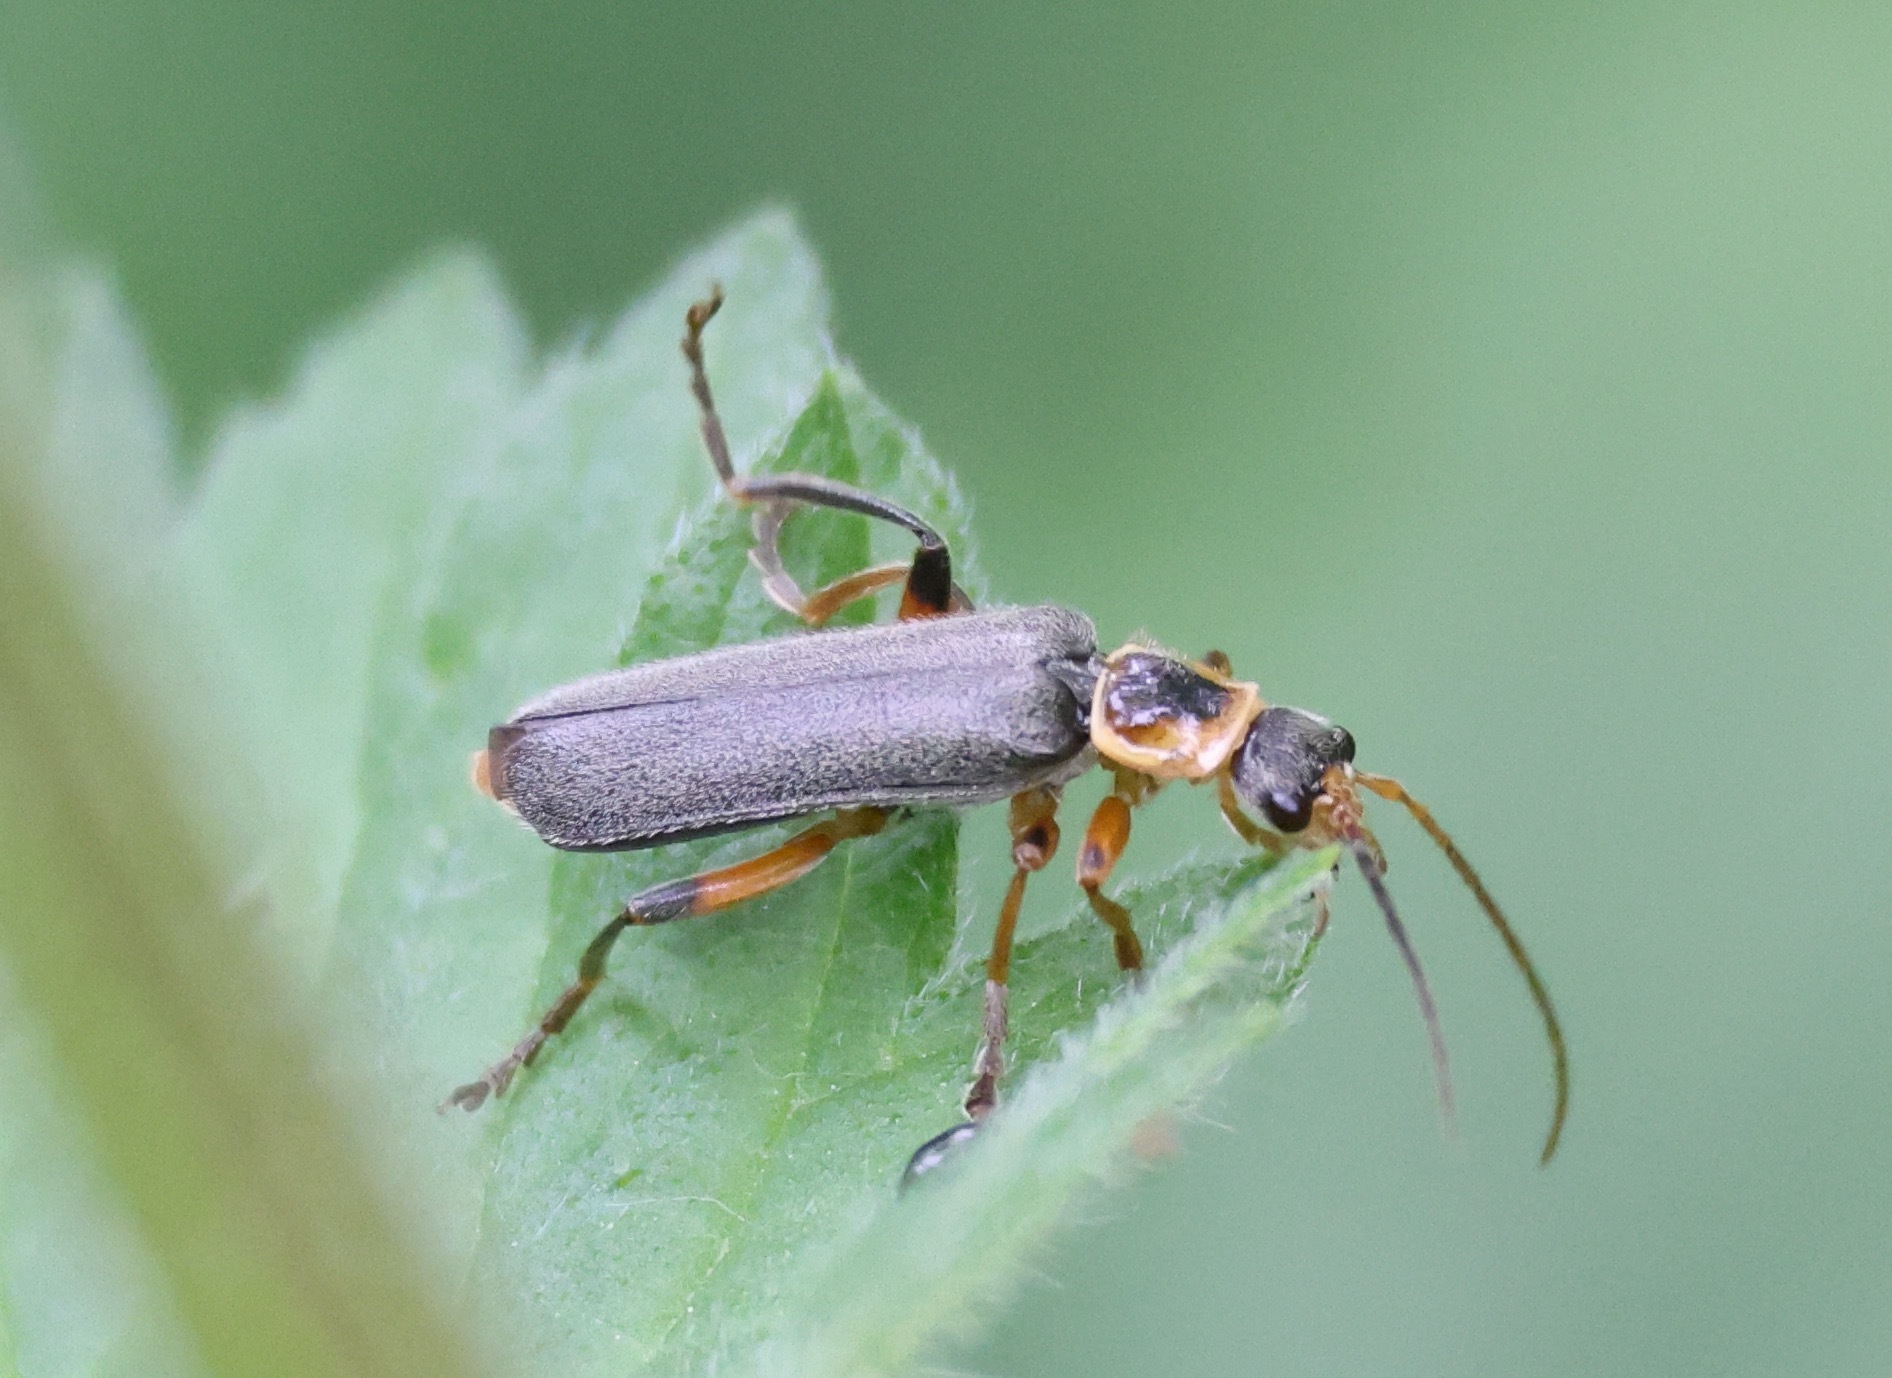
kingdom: Animalia
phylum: Arthropoda
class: Insecta
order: Coleoptera
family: Cantharidae
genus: Cantharis
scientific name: Cantharis nigricans
